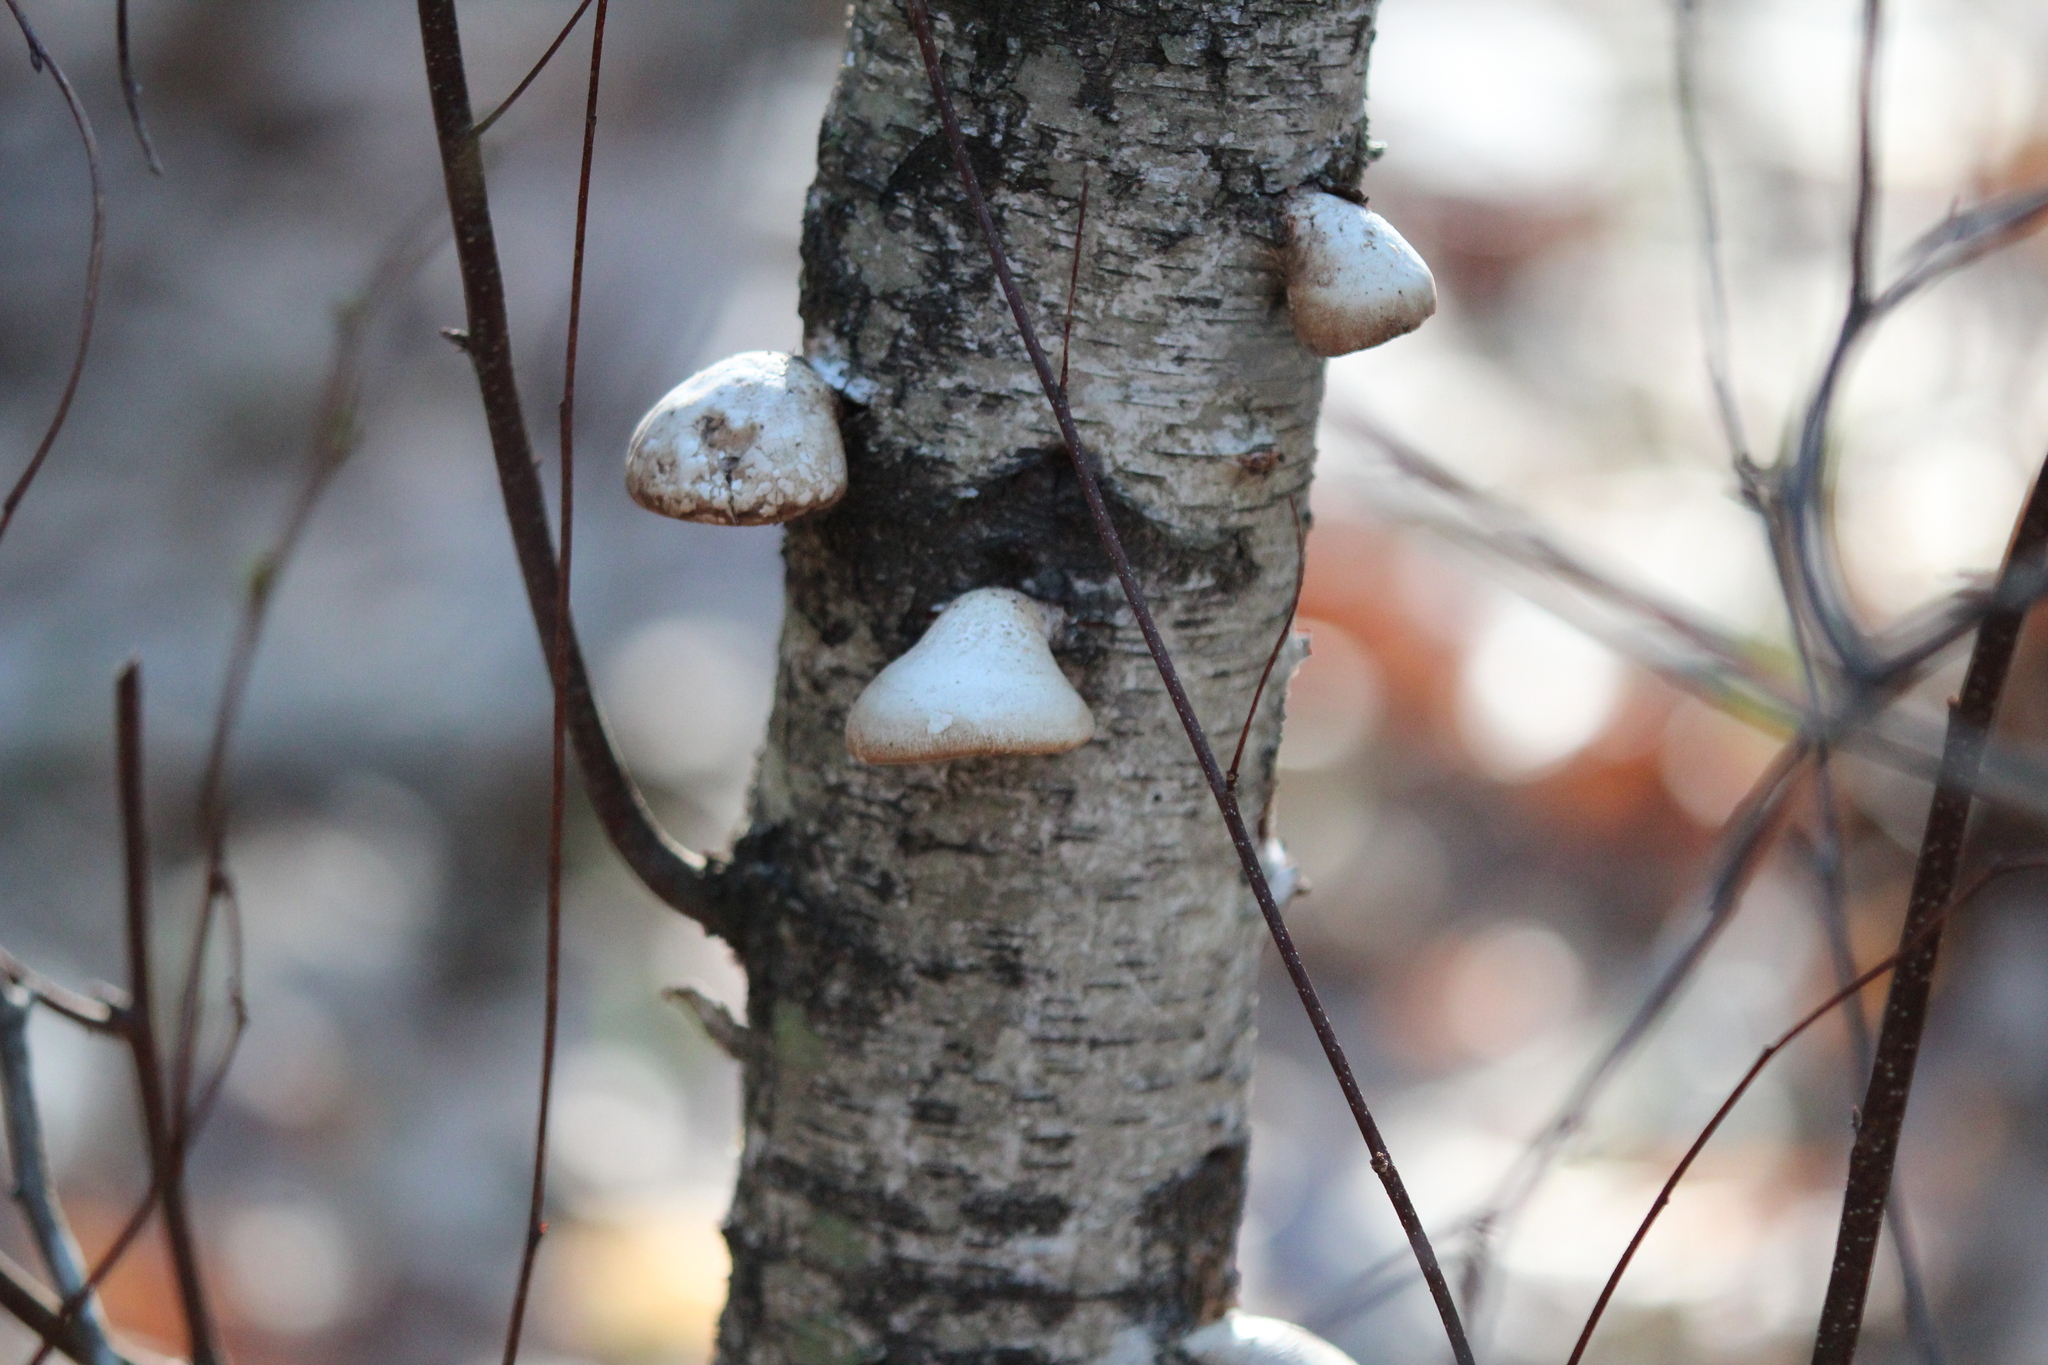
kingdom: Fungi
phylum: Basidiomycota
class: Agaricomycetes
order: Polyporales
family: Fomitopsidaceae
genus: Fomitopsis
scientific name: Fomitopsis betulina
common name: Birch polypore
